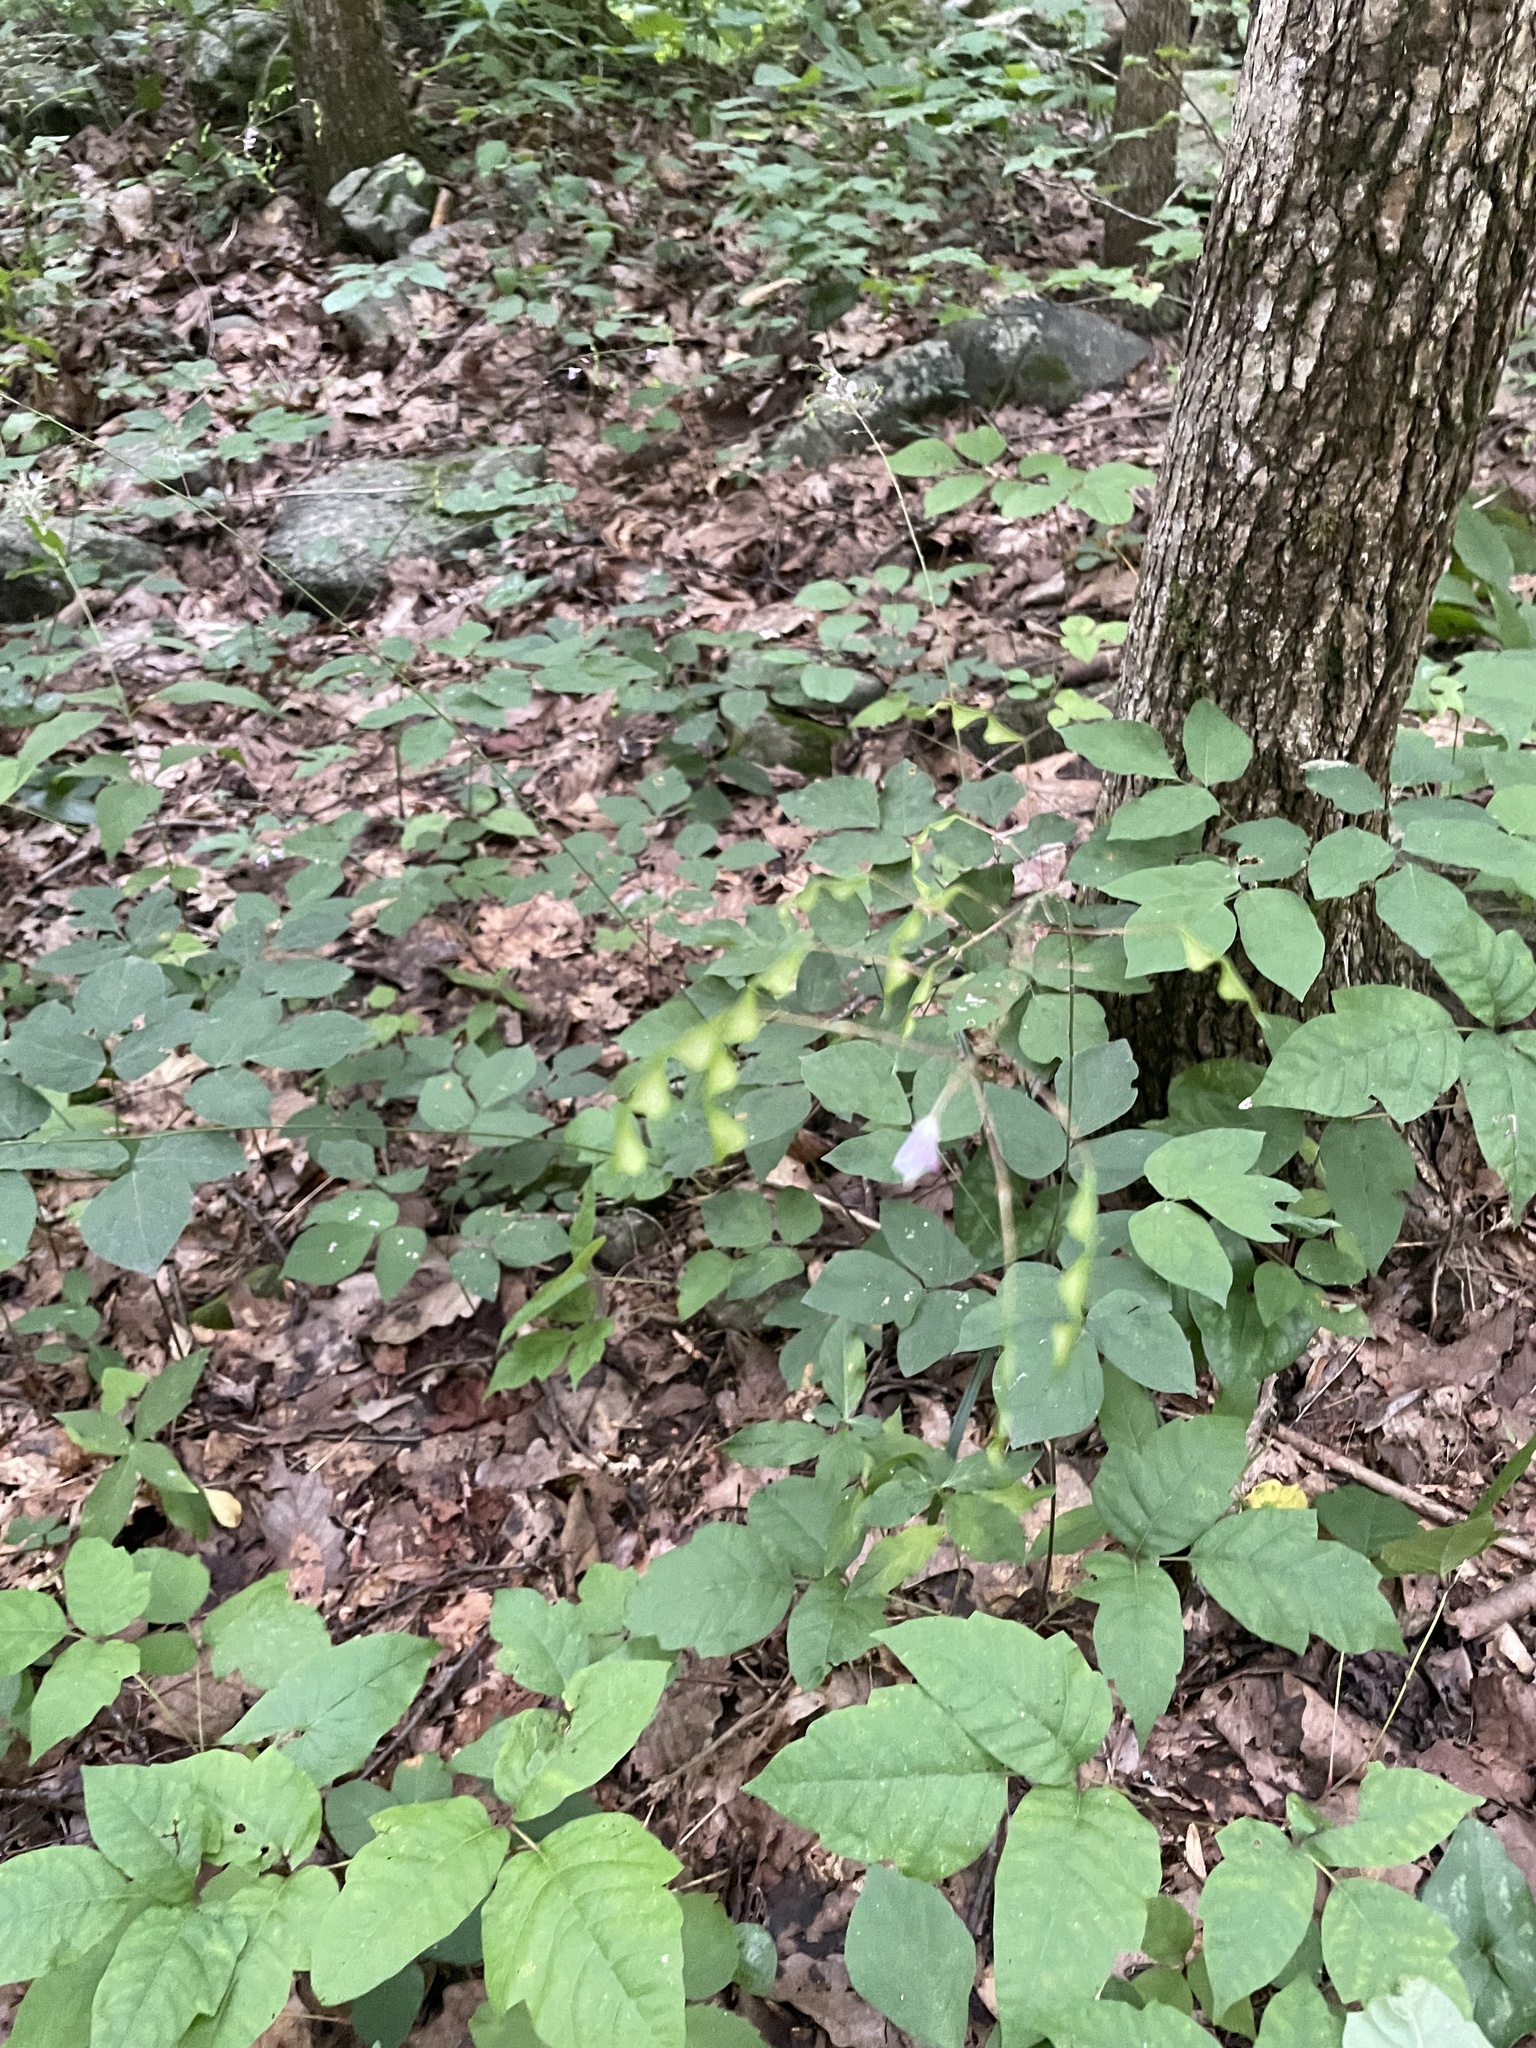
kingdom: Plantae
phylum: Tracheophyta
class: Magnoliopsida
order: Fabales
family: Fabaceae
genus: Hylodesmum
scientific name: Hylodesmum nudiflorum
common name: Bare-stemmed tick-trefoil
